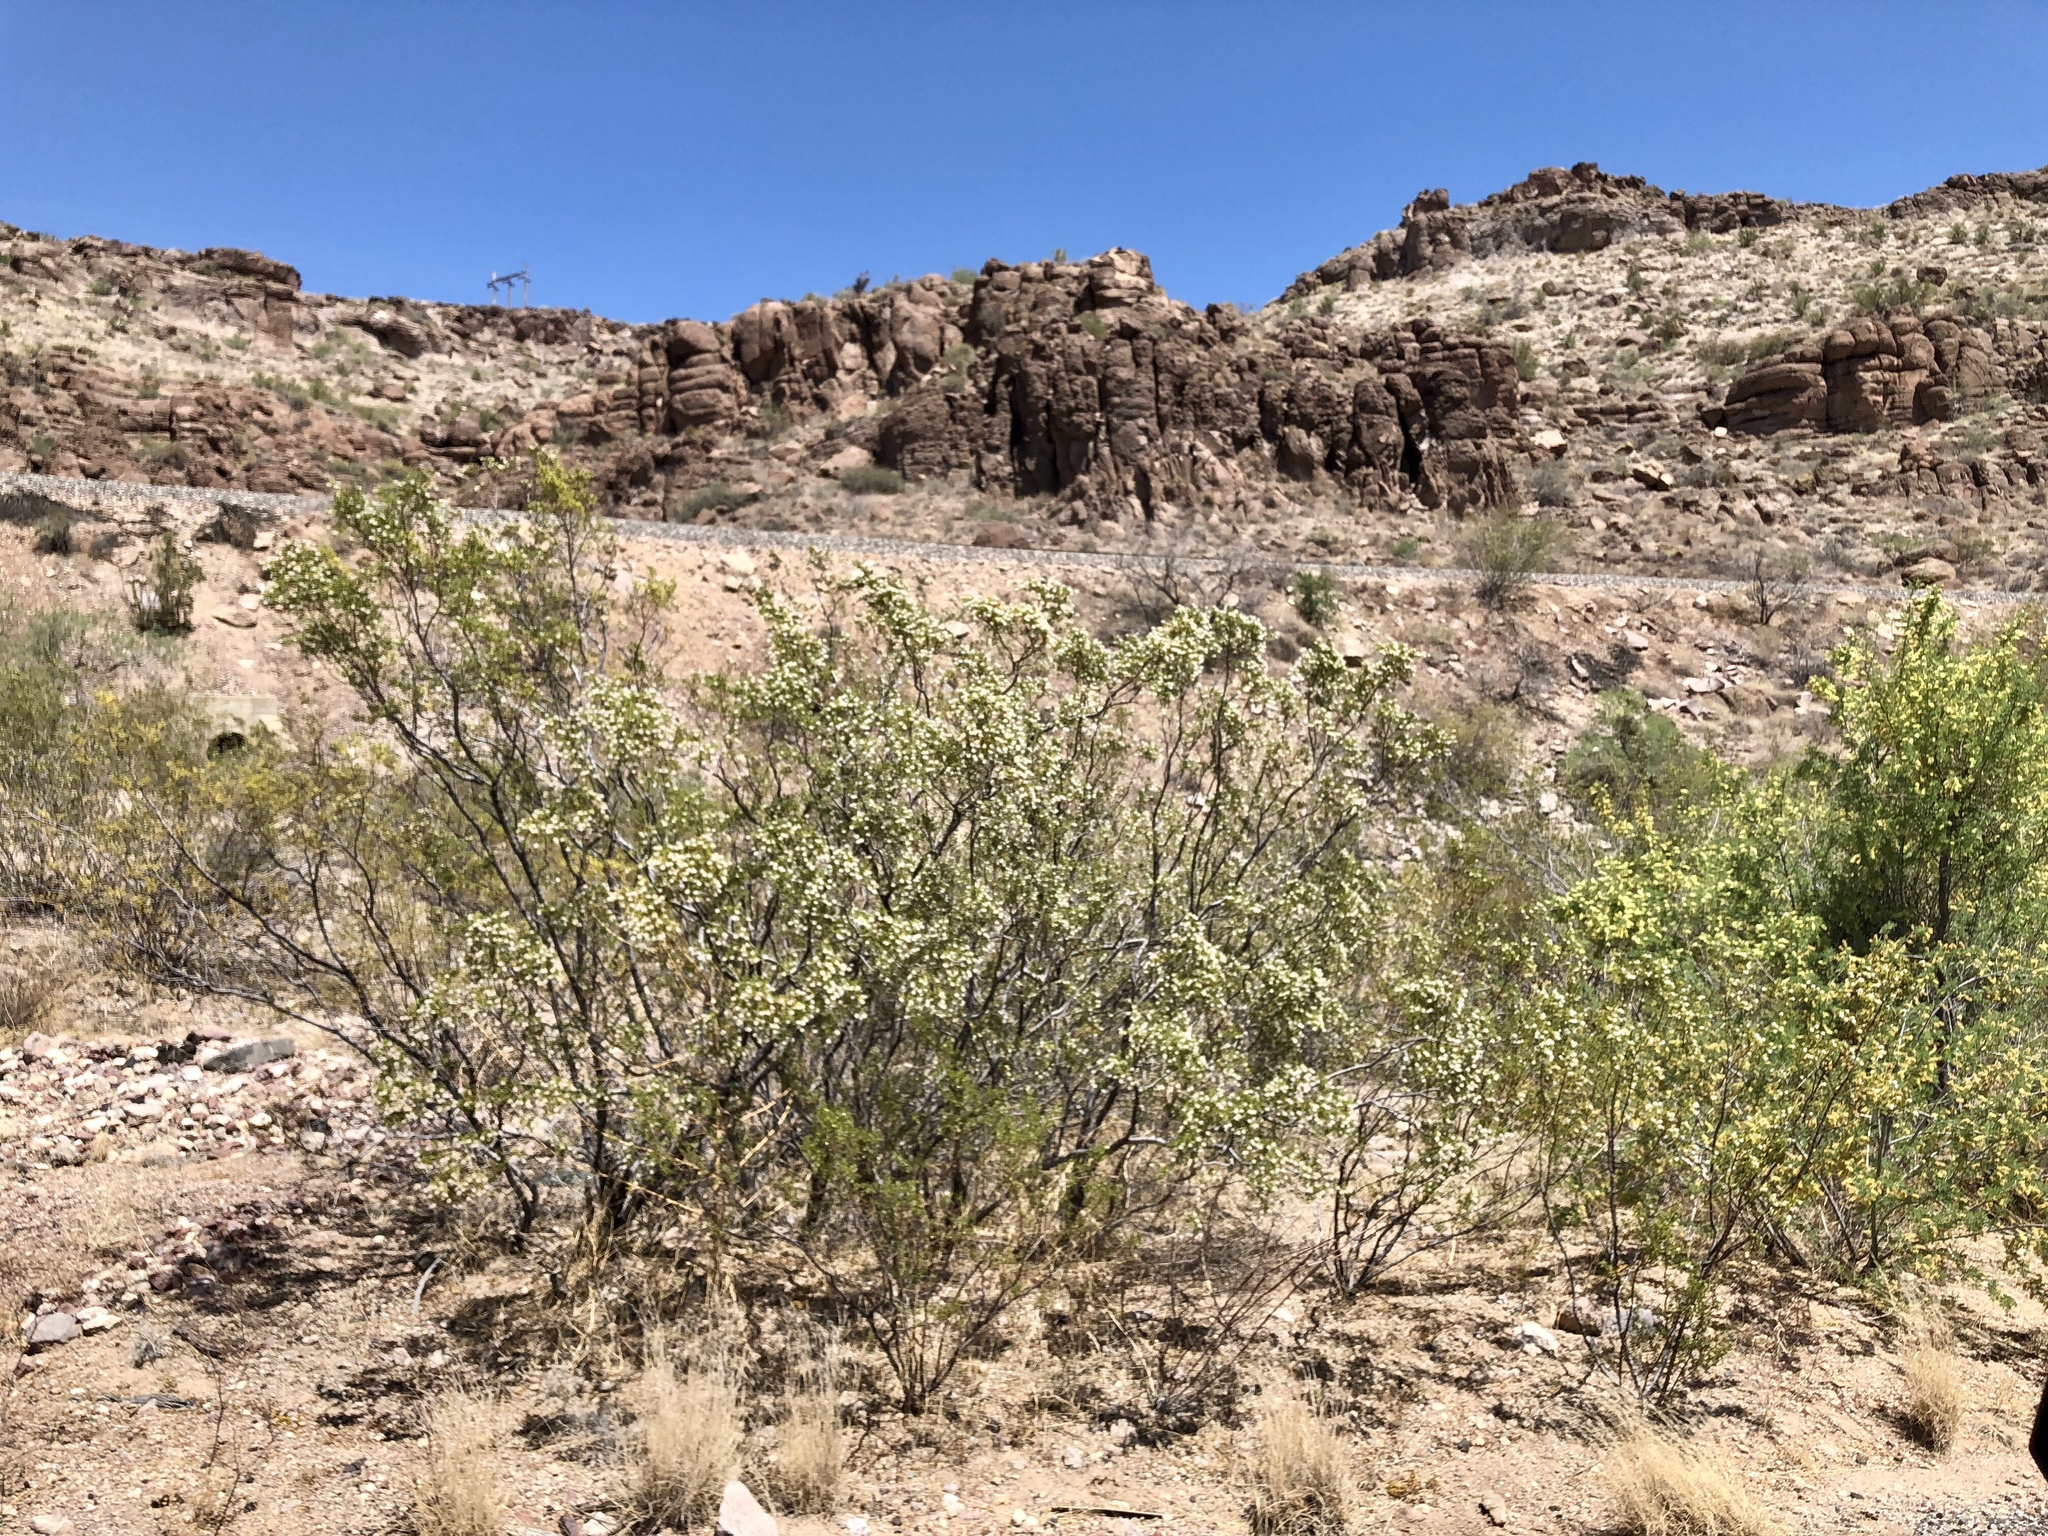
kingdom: Plantae
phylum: Tracheophyta
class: Magnoliopsida
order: Zygophyllales
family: Zygophyllaceae
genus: Larrea
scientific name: Larrea tridentata
